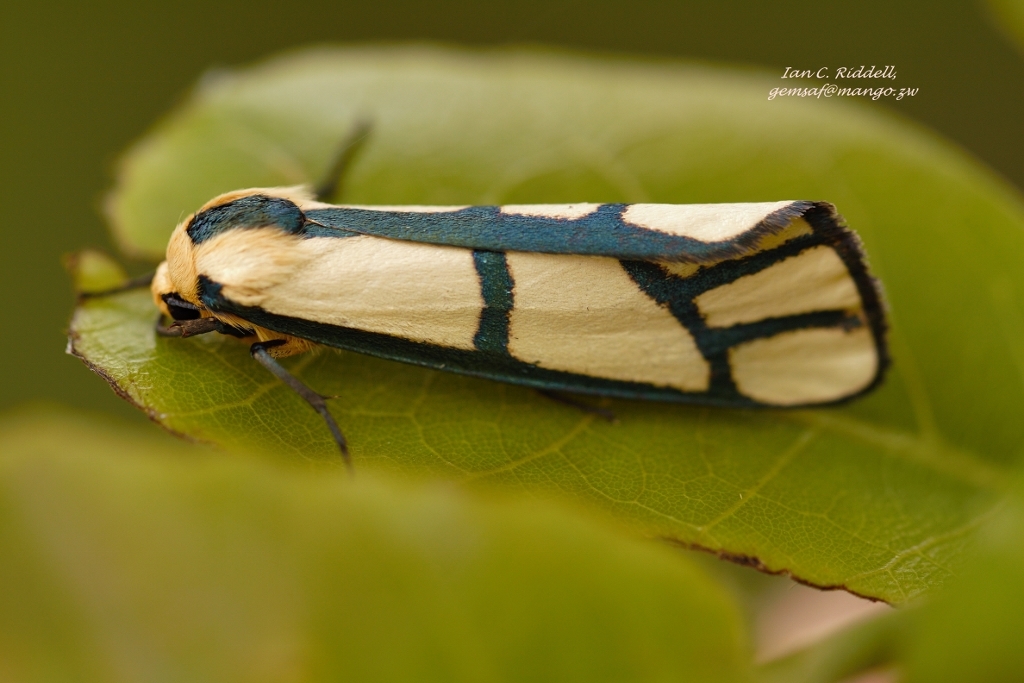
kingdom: Animalia
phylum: Arthropoda
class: Insecta
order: Lepidoptera
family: Erebidae
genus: Anaphosia
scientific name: Anaphosia cyanogramma
